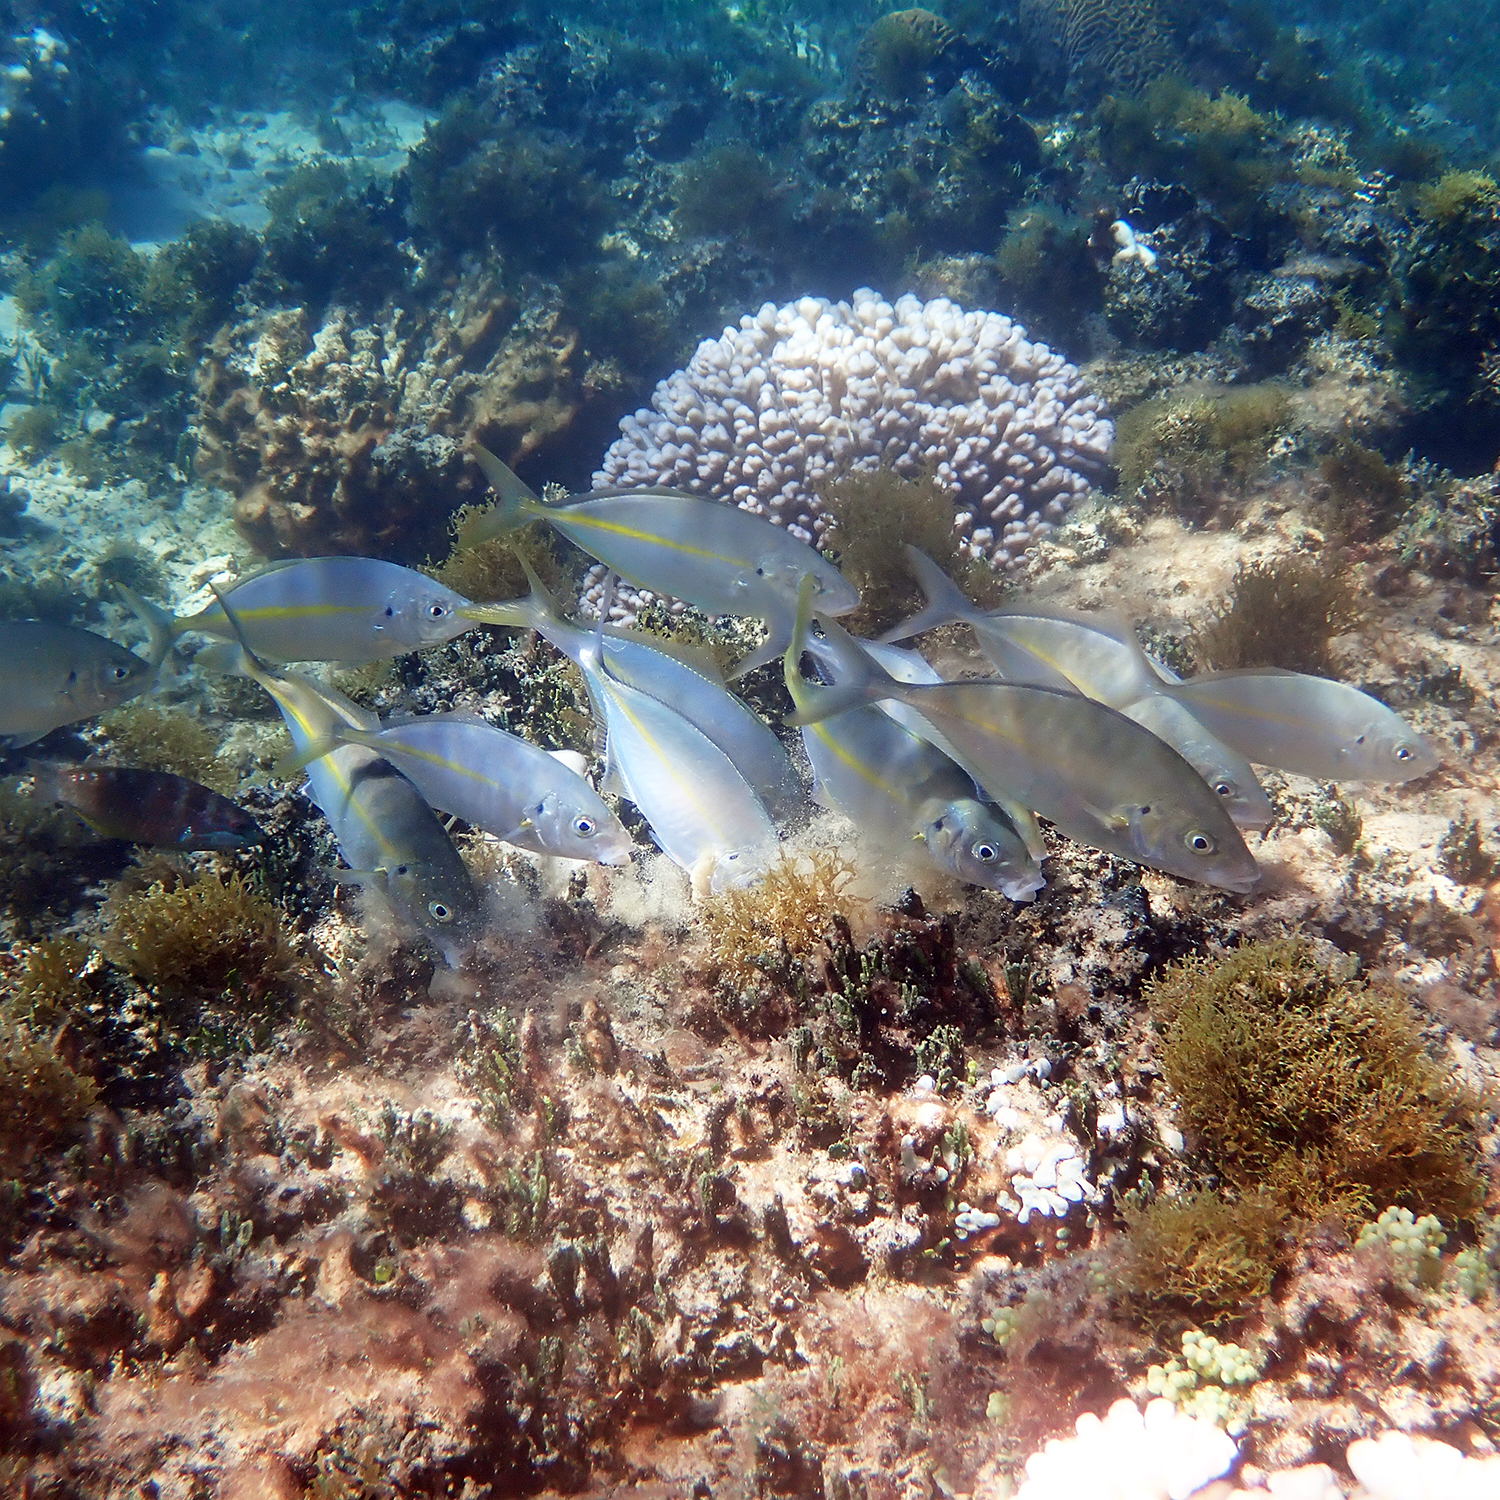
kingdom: Animalia
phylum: Chordata
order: Perciformes
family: Carangidae
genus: Pseudocaranx
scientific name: Pseudocaranx dentex
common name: White trevally
